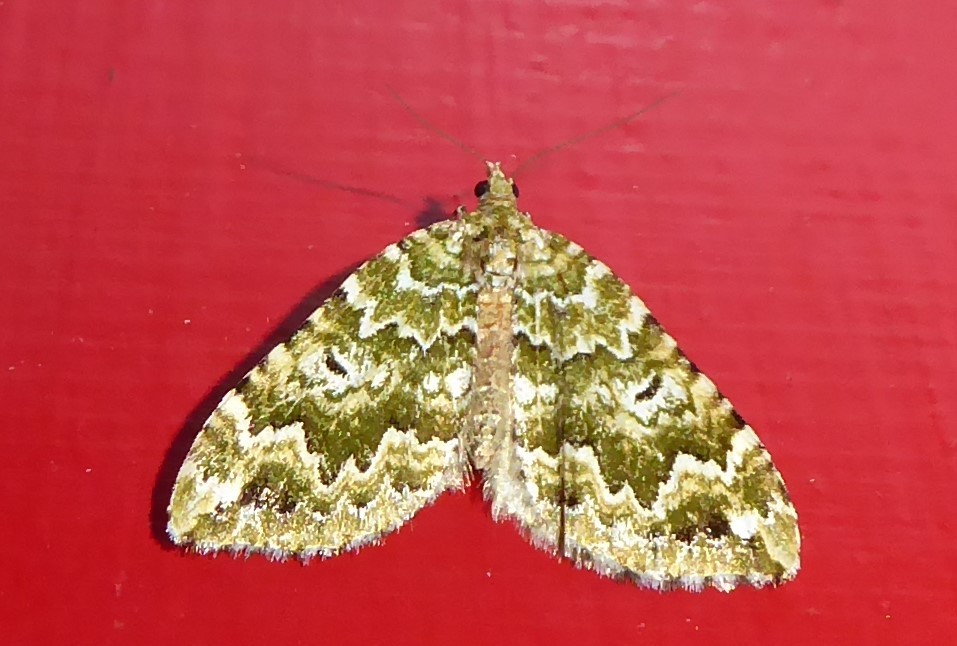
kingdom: Animalia
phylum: Arthropoda
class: Insecta
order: Lepidoptera
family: Geometridae
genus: Asaphodes
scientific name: Asaphodes beata
